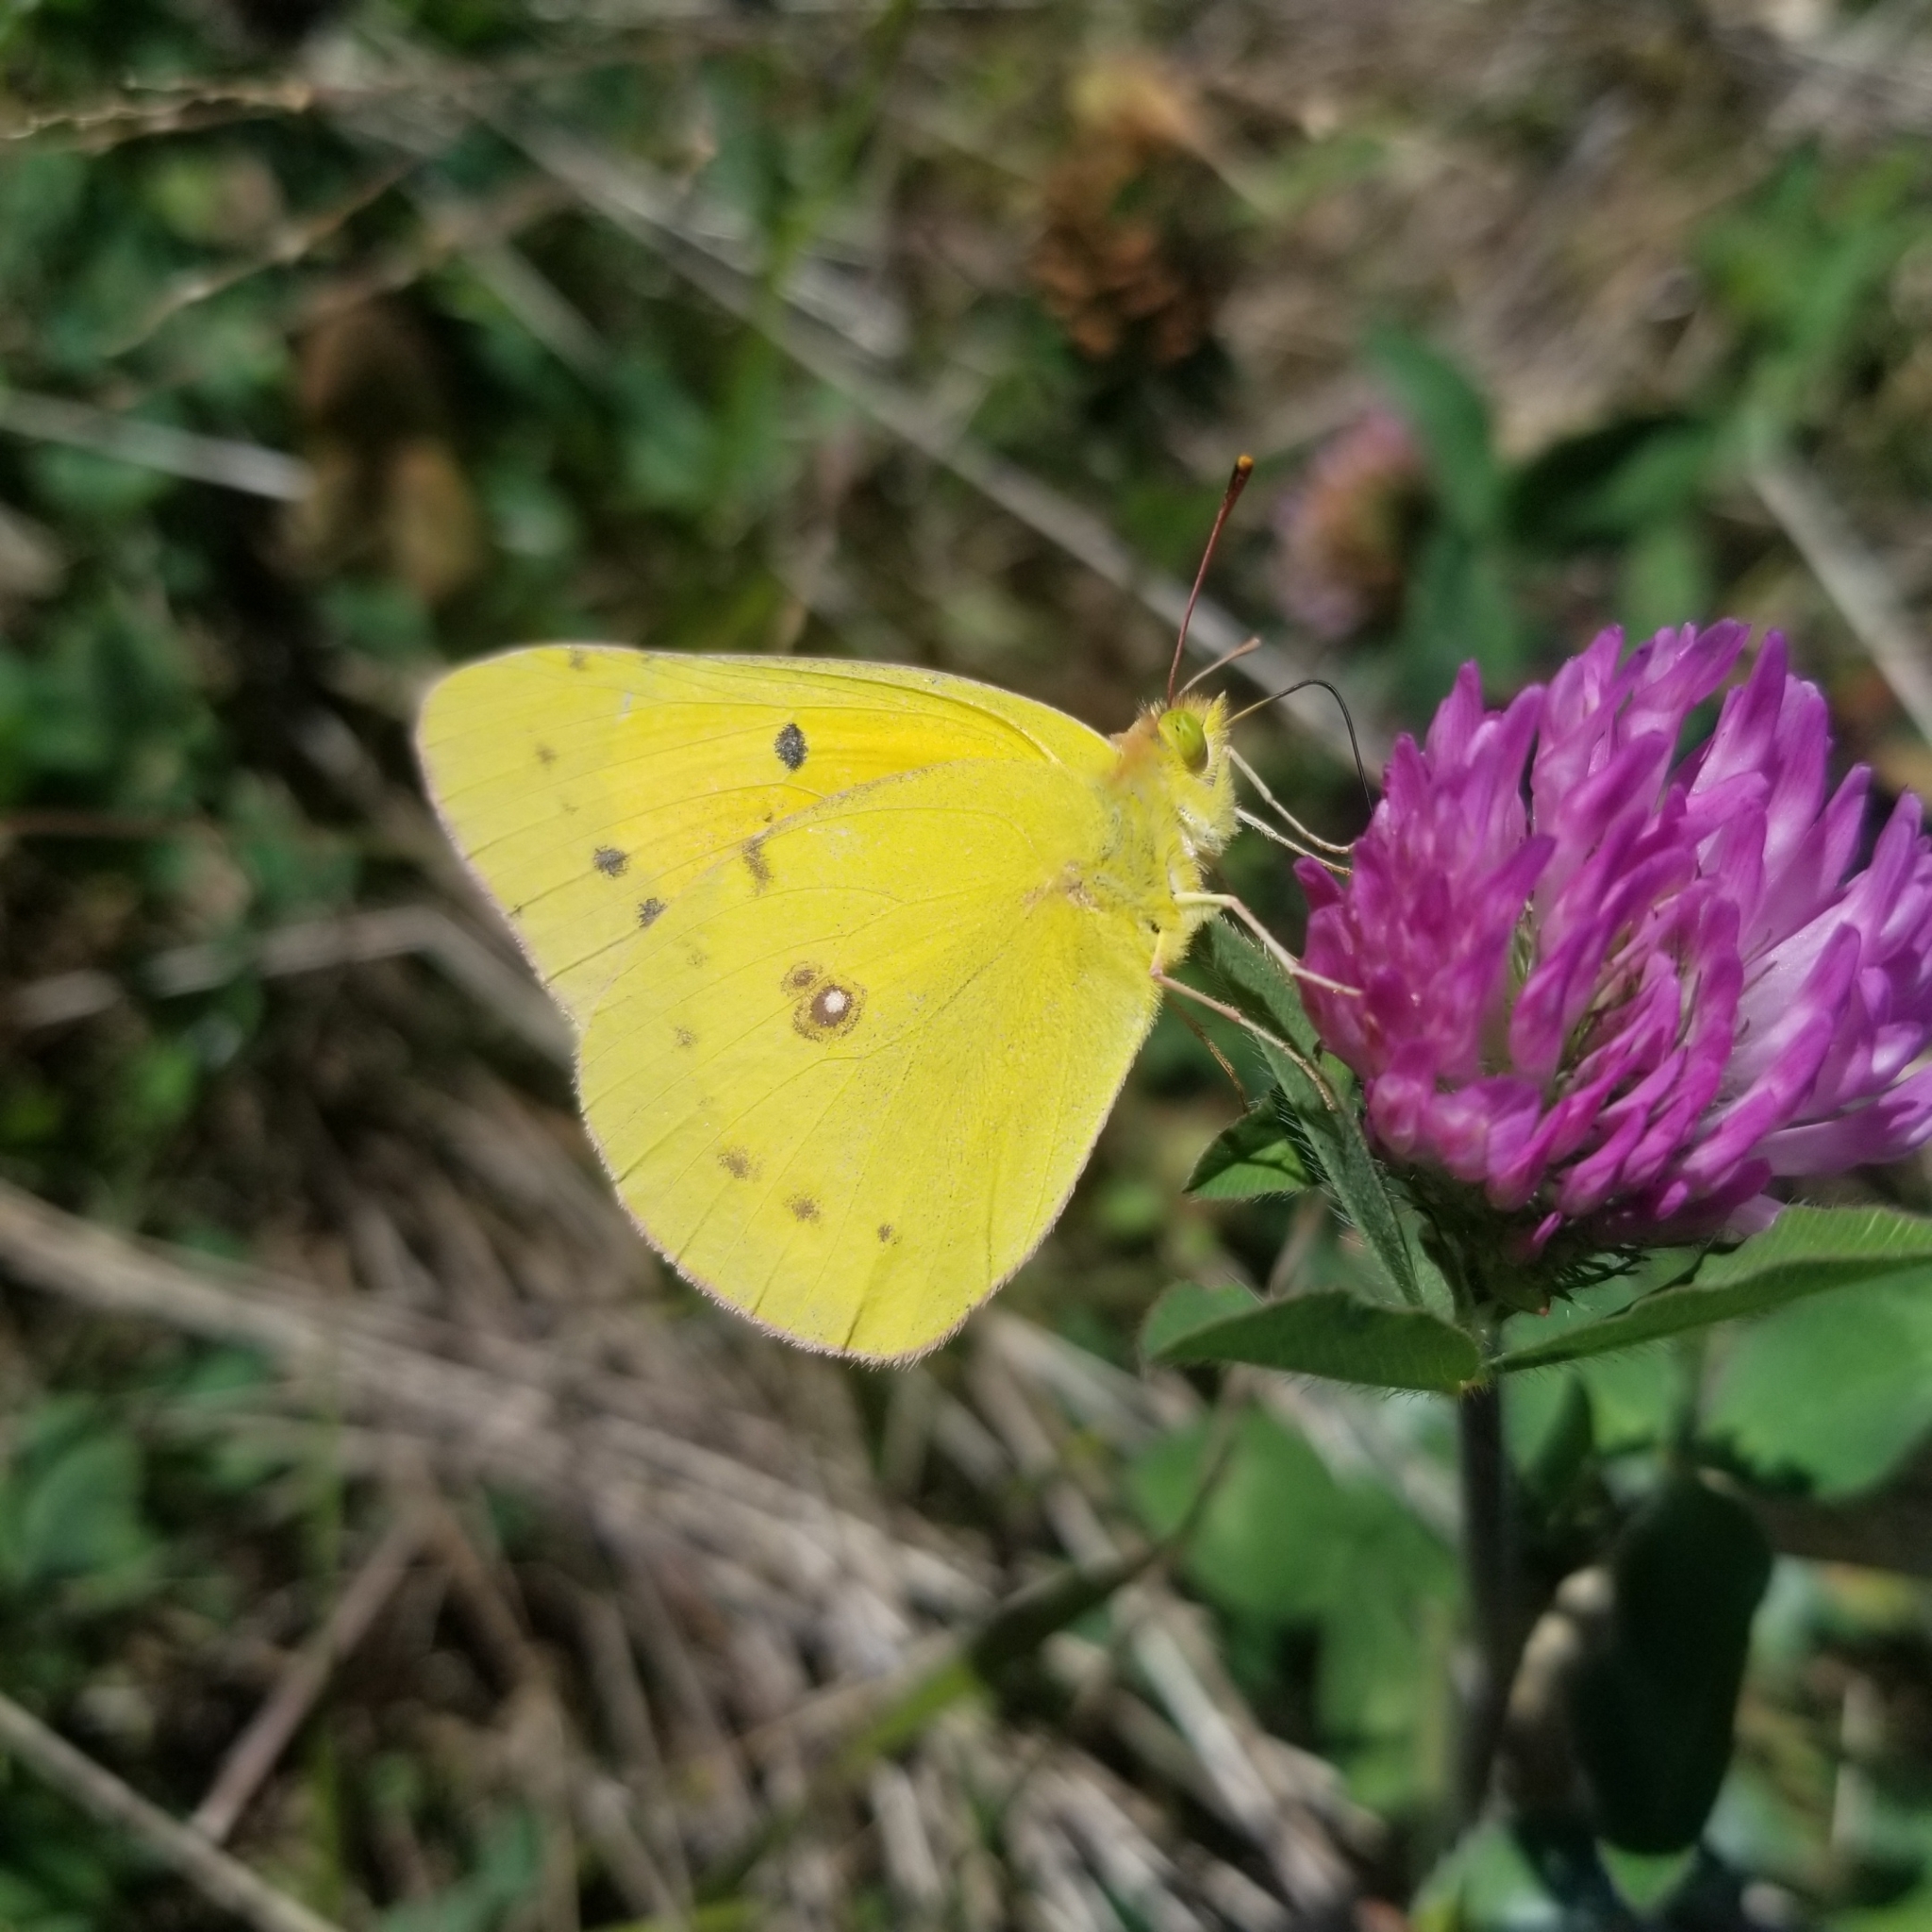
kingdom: Animalia
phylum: Arthropoda
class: Insecta
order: Lepidoptera
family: Pieridae
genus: Colias
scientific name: Colias eurytheme
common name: Alfalfa butterfly
